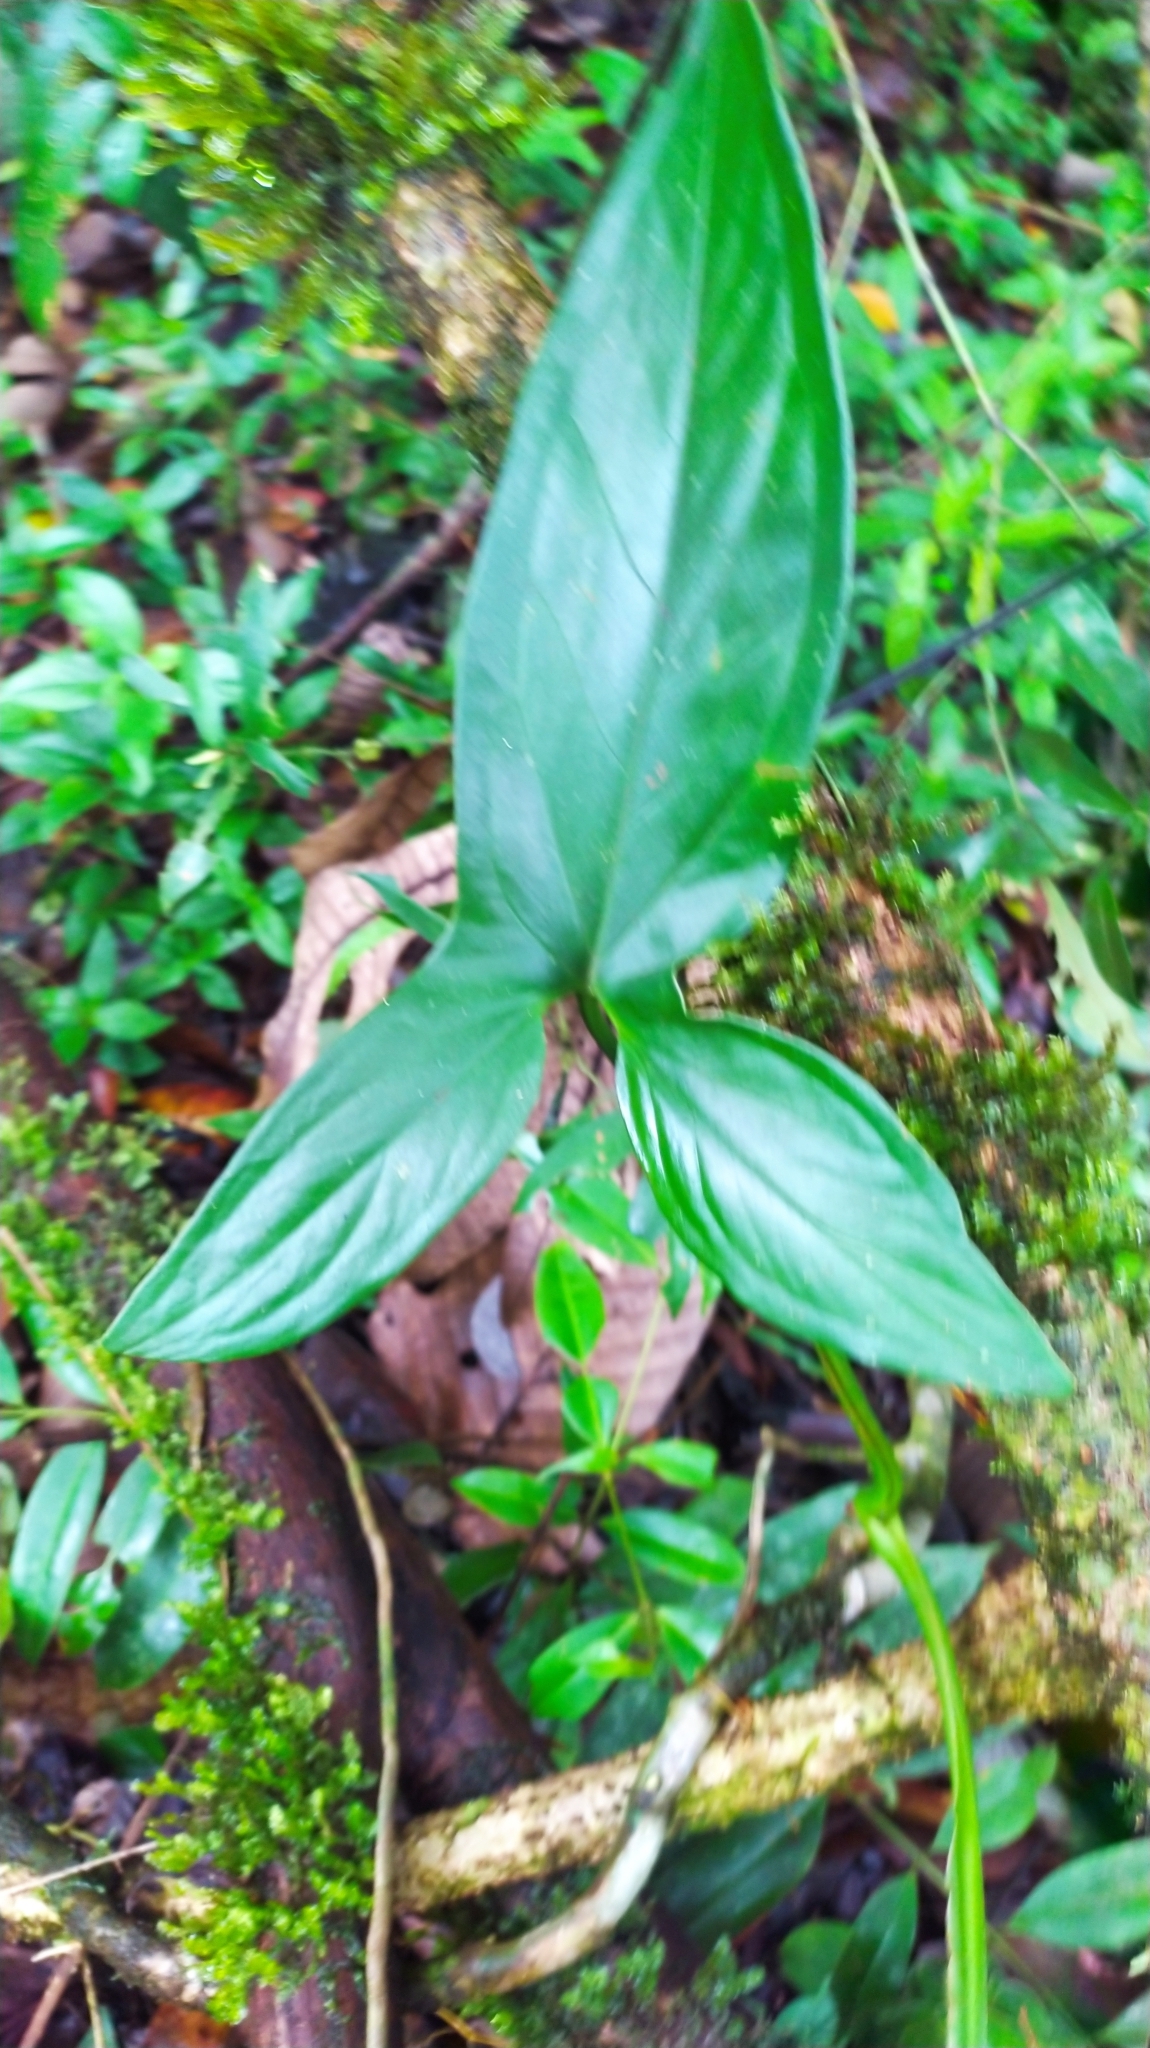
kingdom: Plantae
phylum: Tracheophyta
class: Liliopsida
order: Alismatales
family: Araceae
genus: Syngonium
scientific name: Syngonium podophyllum
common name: American evergreen
